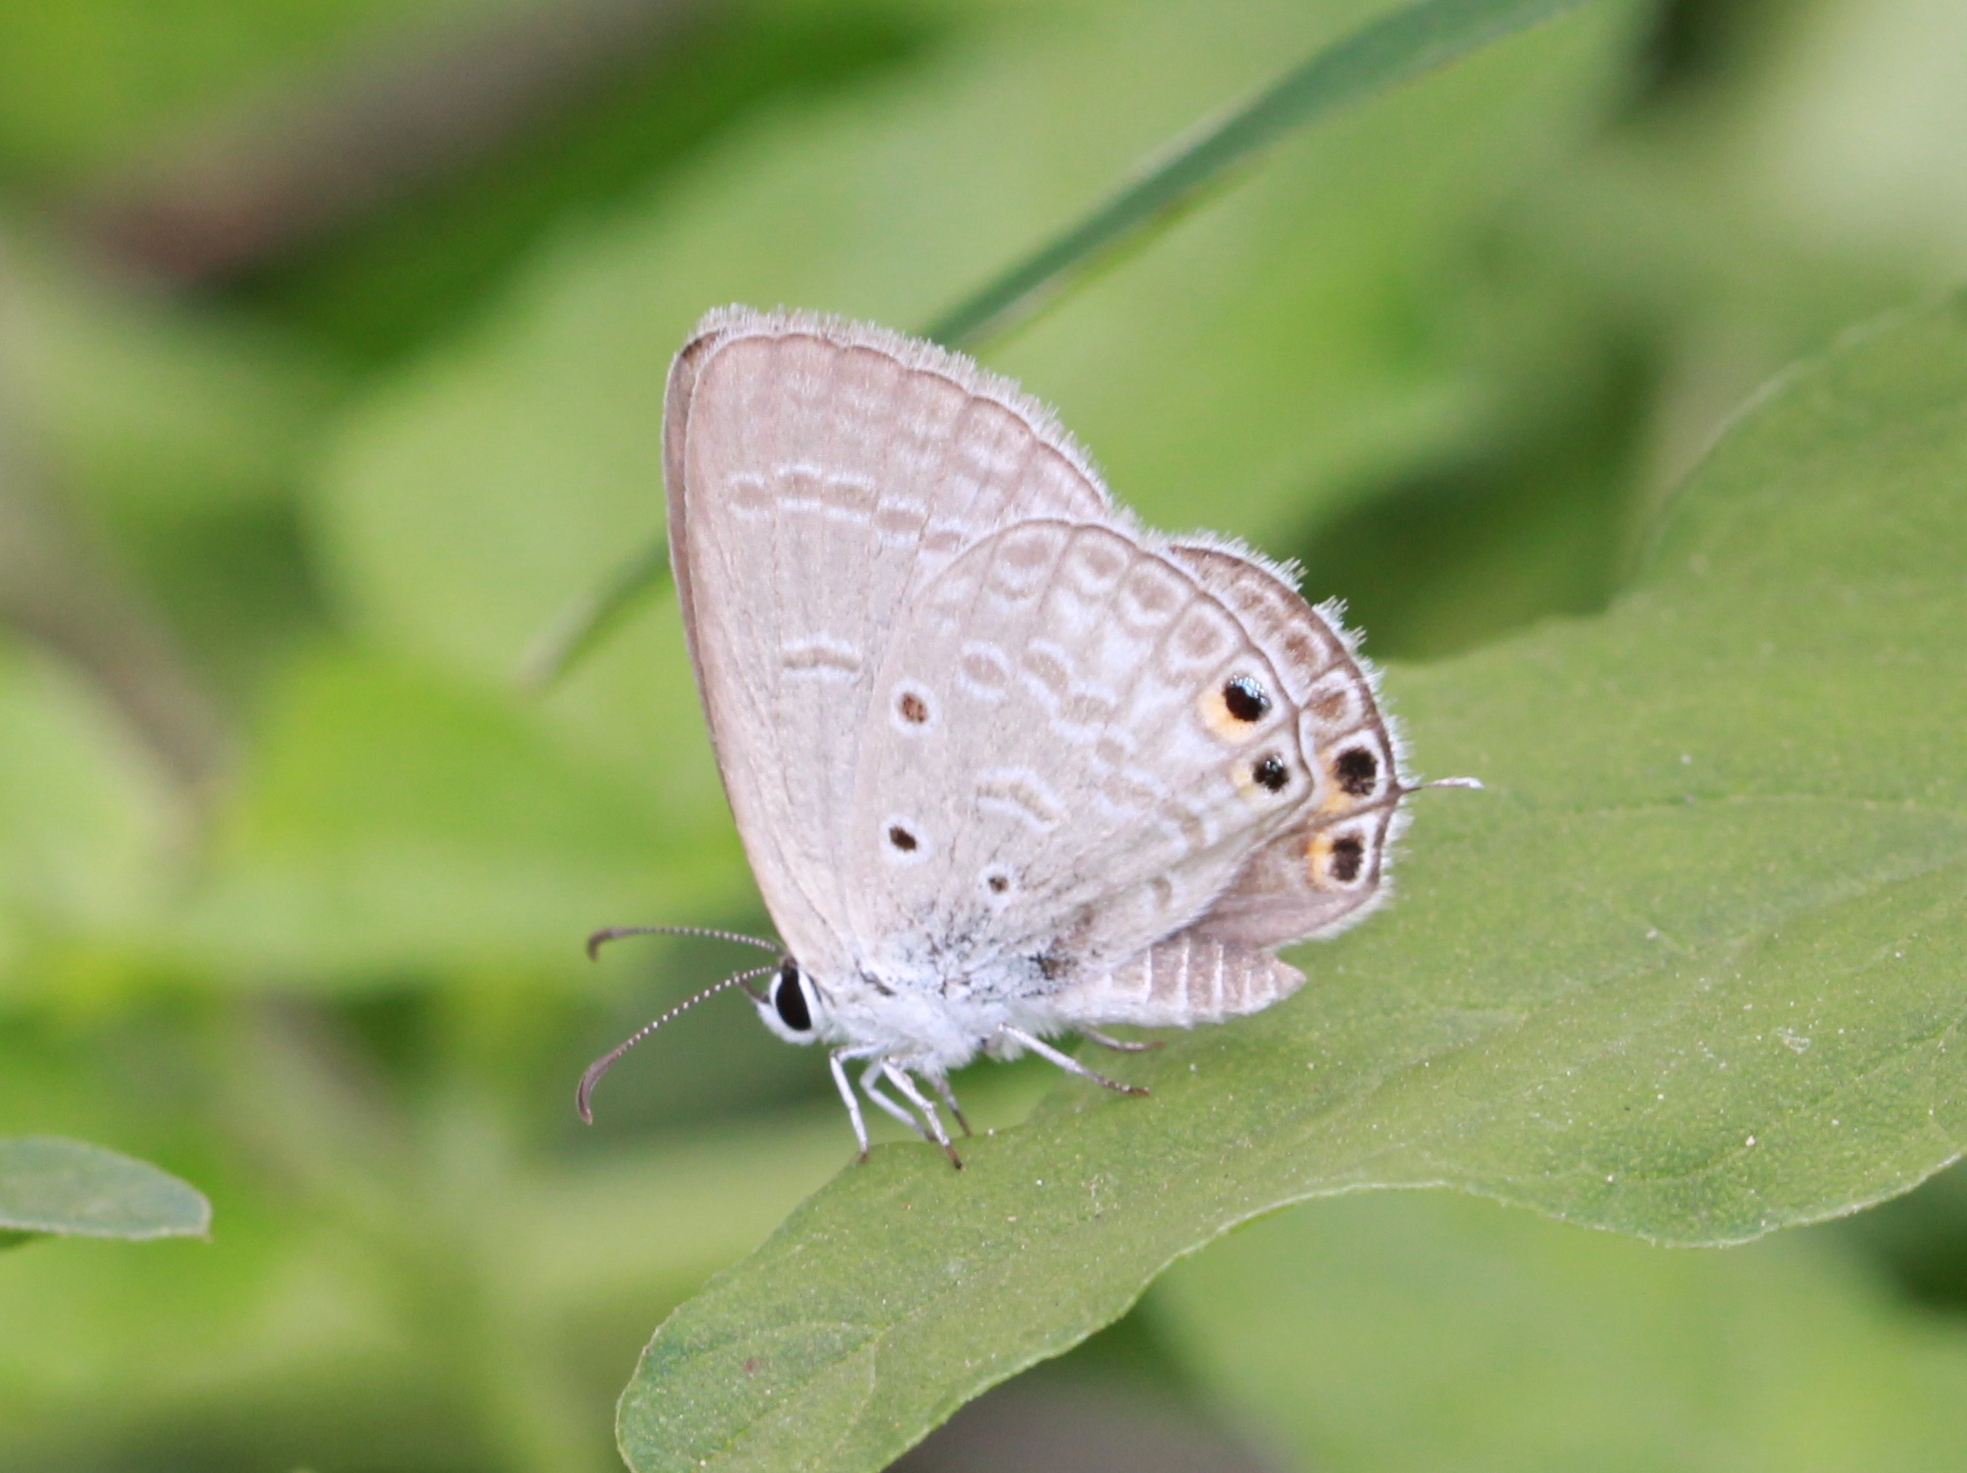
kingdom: Animalia
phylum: Arthropoda
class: Insecta
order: Lepidoptera
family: Lycaenidae
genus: Euchrysops
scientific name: Euchrysops cnejus
